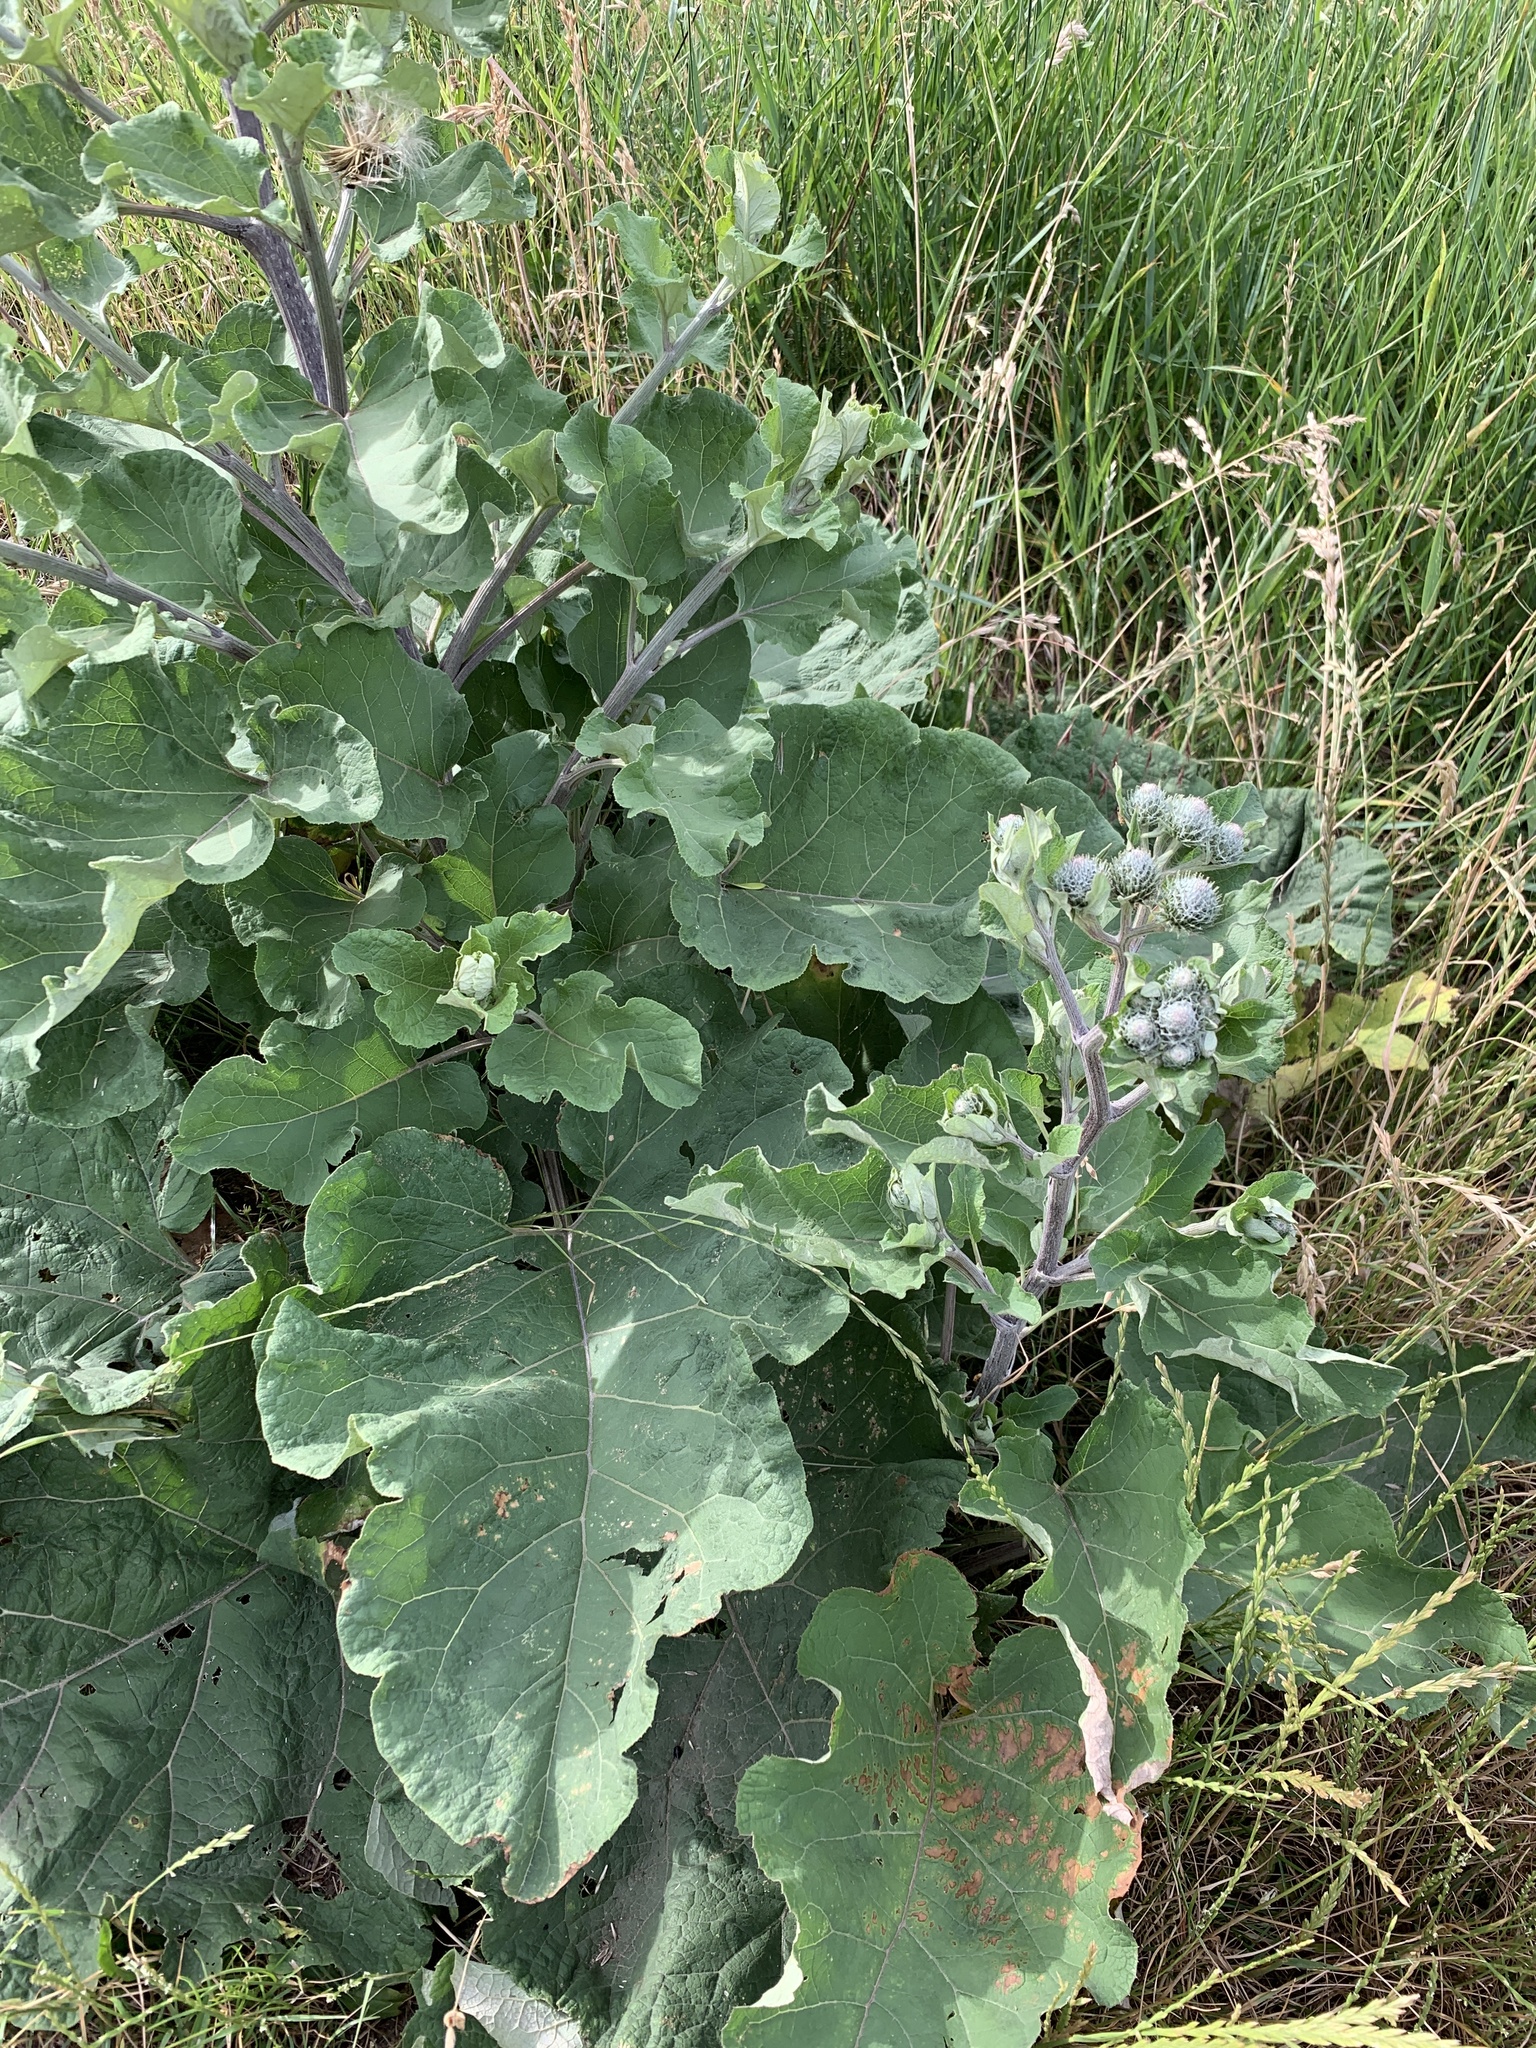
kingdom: Plantae
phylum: Tracheophyta
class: Magnoliopsida
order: Asterales
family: Asteraceae
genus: Arctium
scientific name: Arctium tomentosum
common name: Woolly burdock
